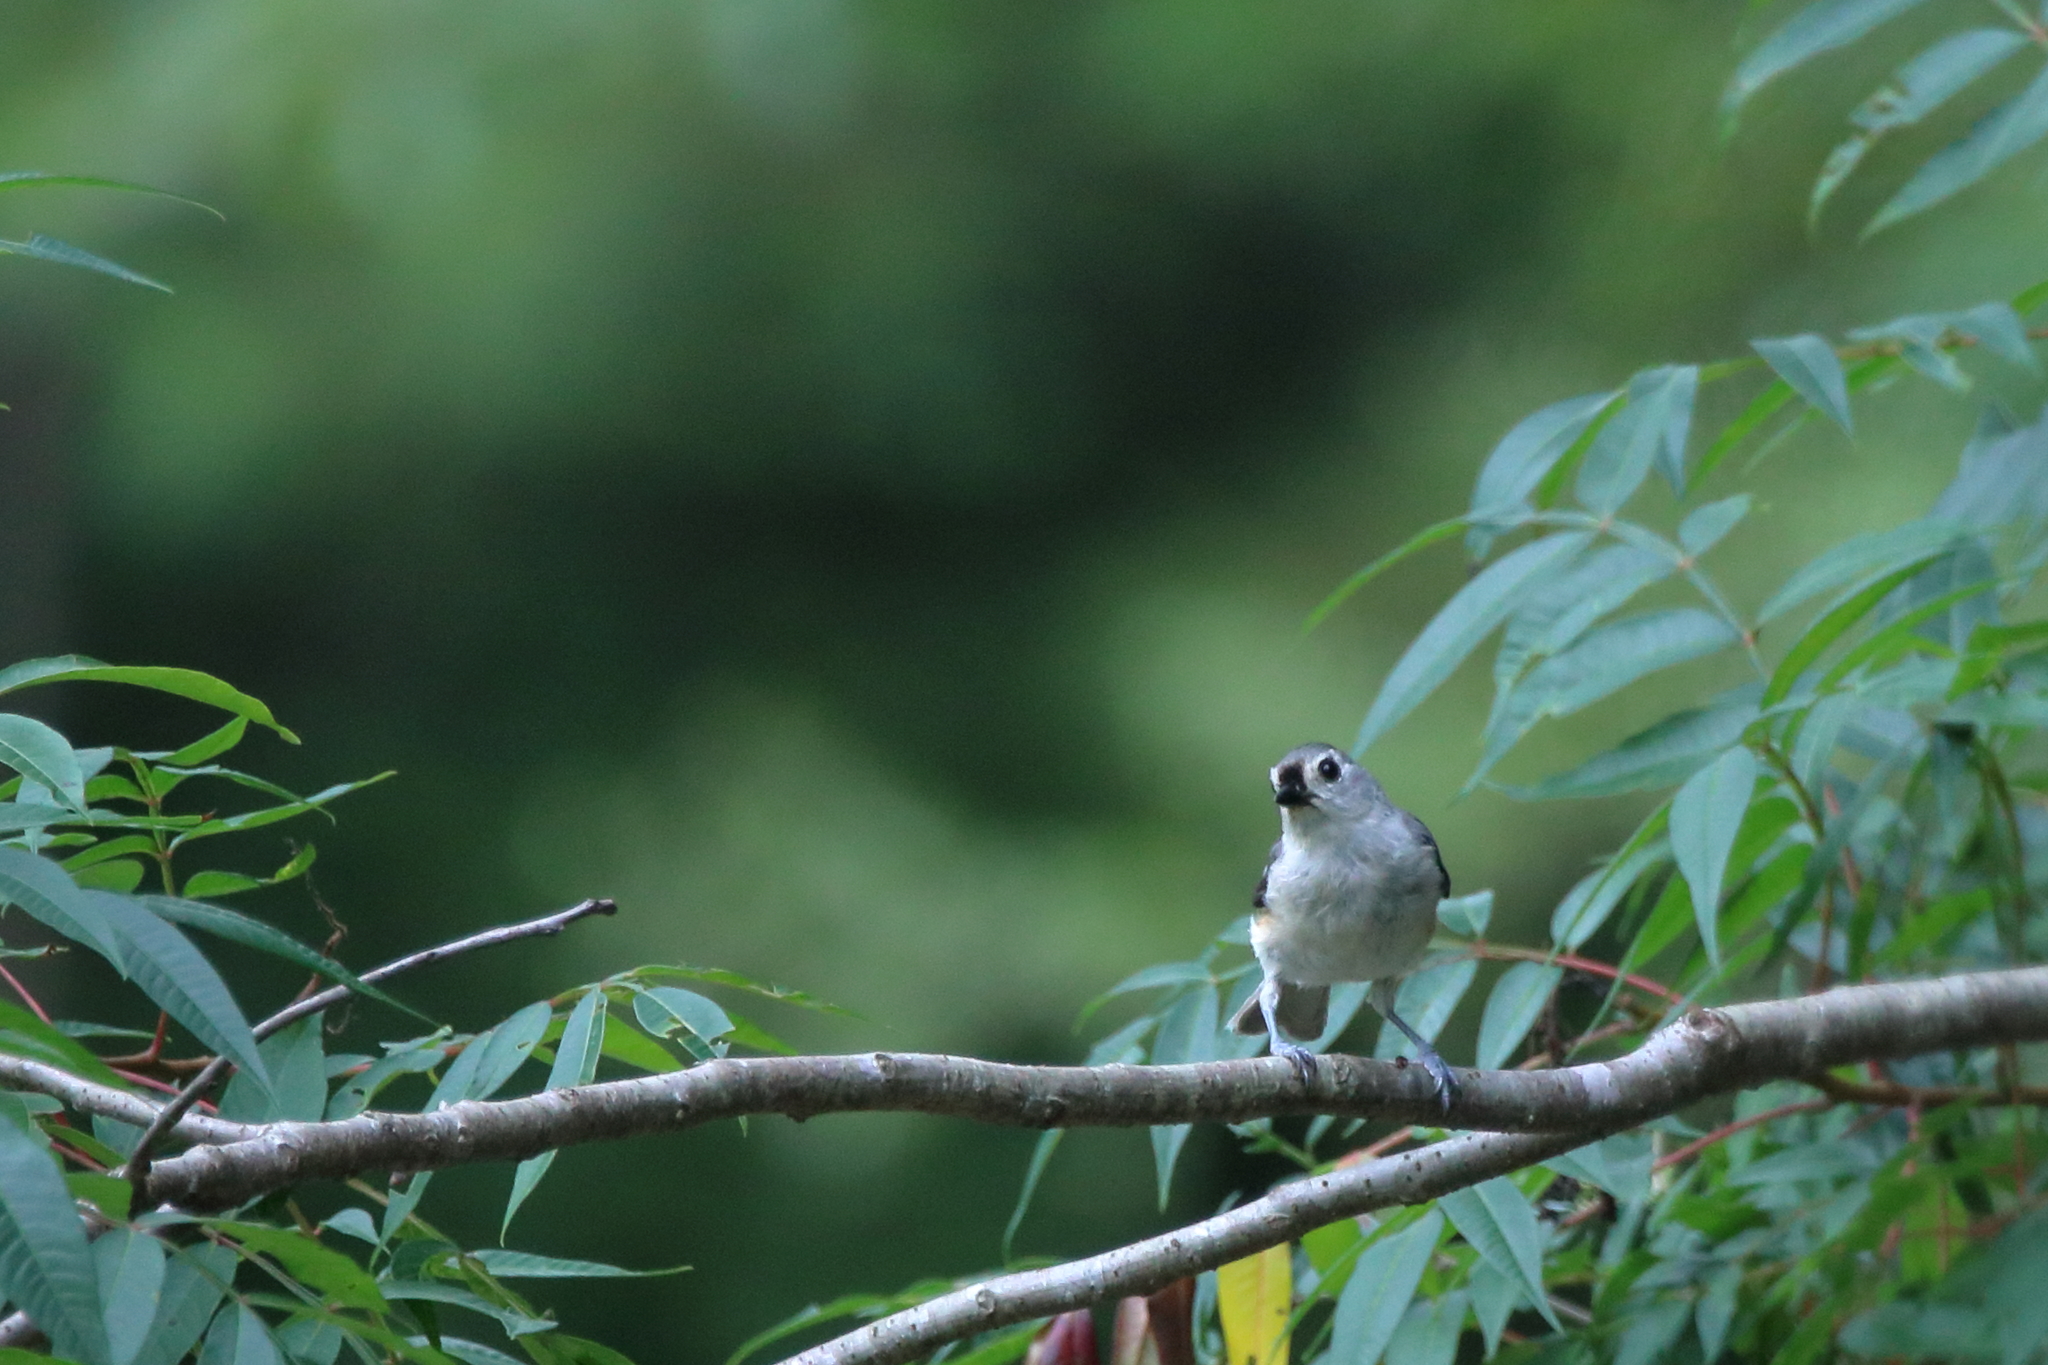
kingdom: Animalia
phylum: Chordata
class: Aves
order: Passeriformes
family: Paridae
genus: Baeolophus
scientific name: Baeolophus bicolor
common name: Tufted titmouse
